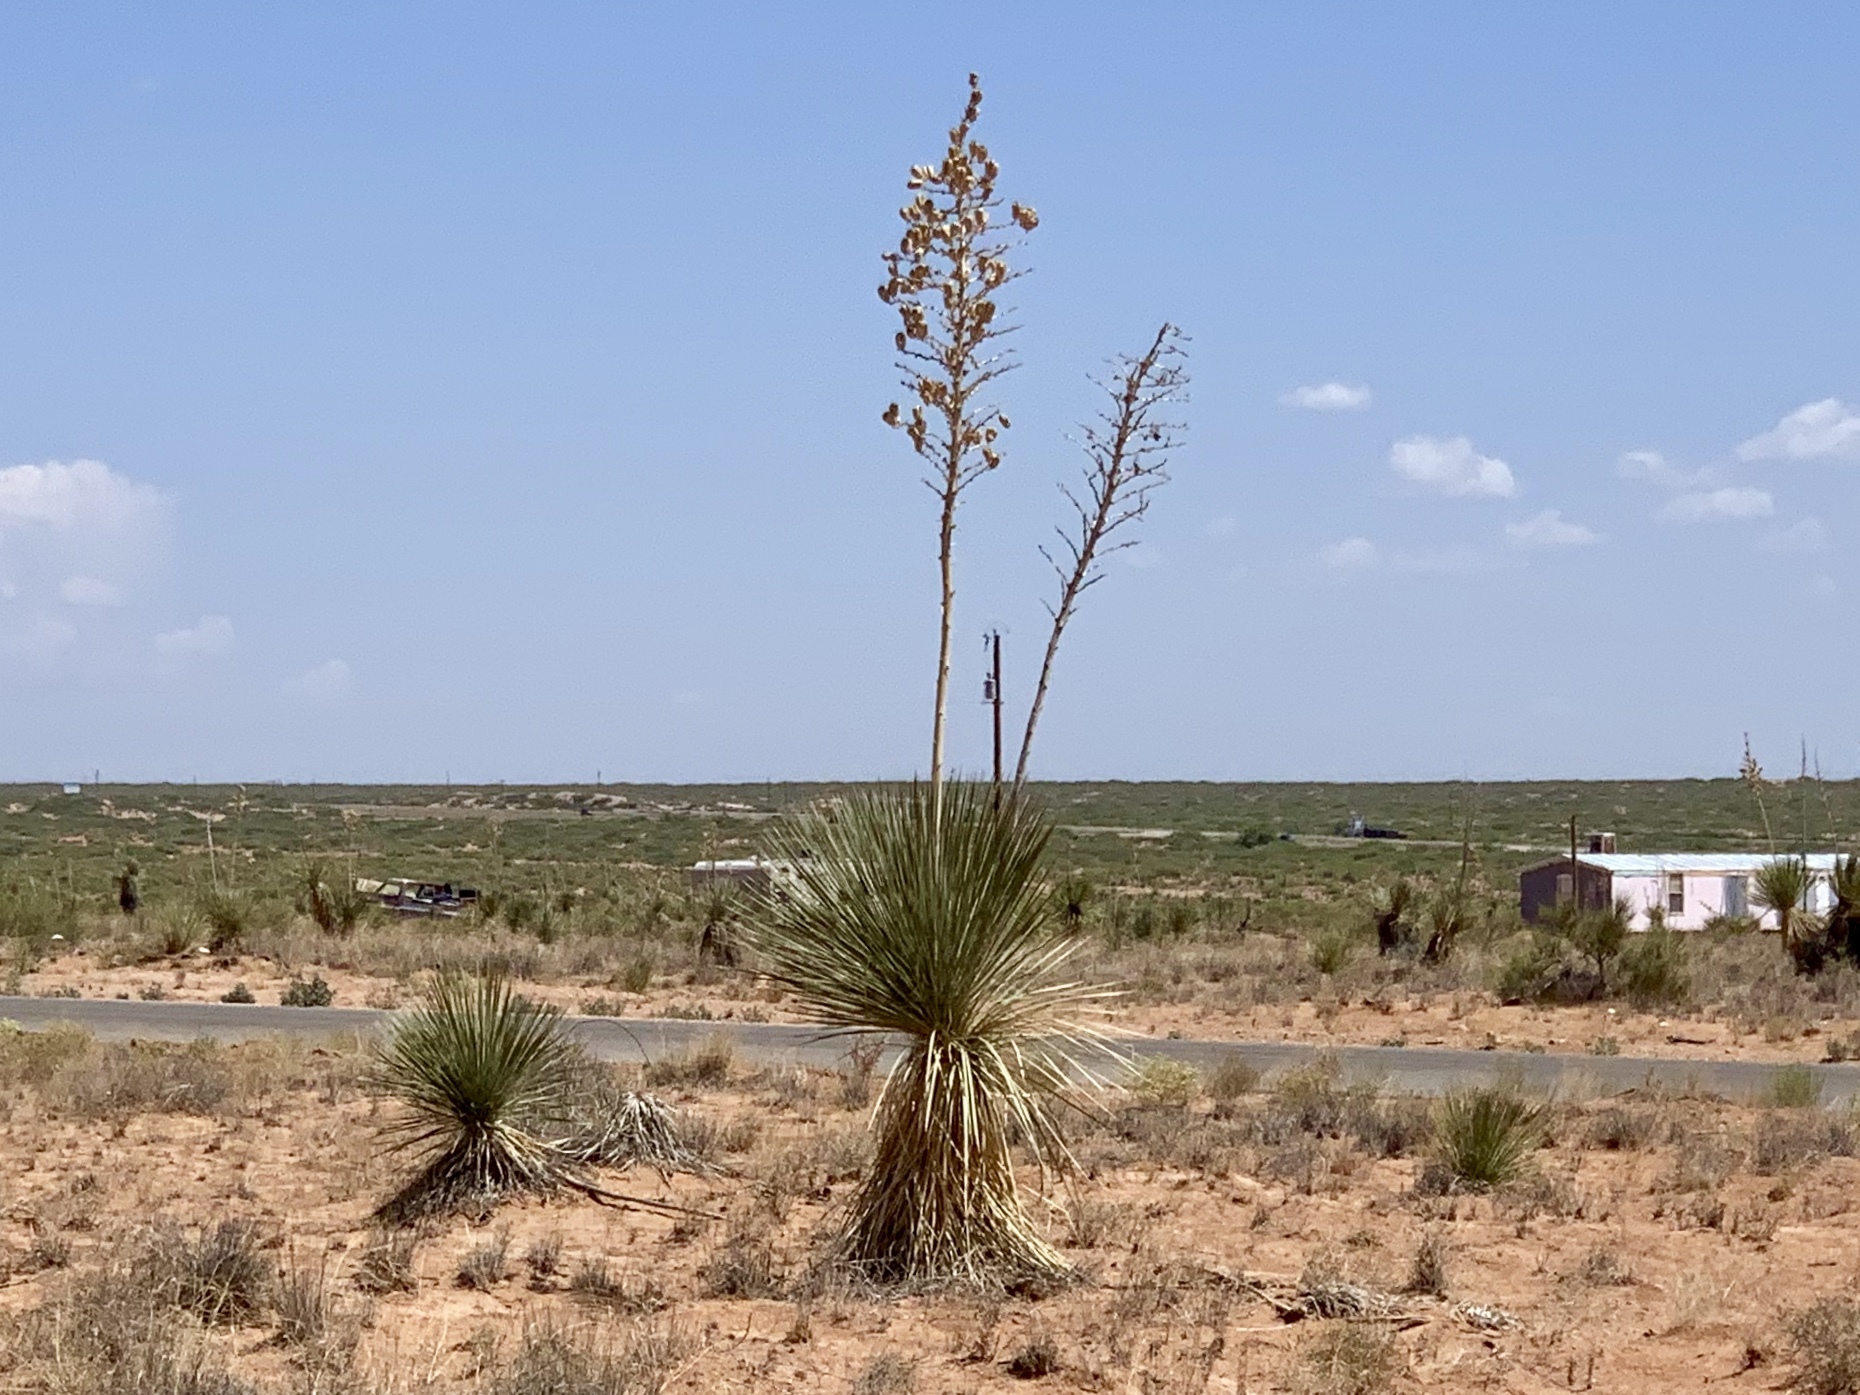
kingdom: Plantae
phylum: Tracheophyta
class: Liliopsida
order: Asparagales
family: Asparagaceae
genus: Yucca
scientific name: Yucca elata
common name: Palmella
